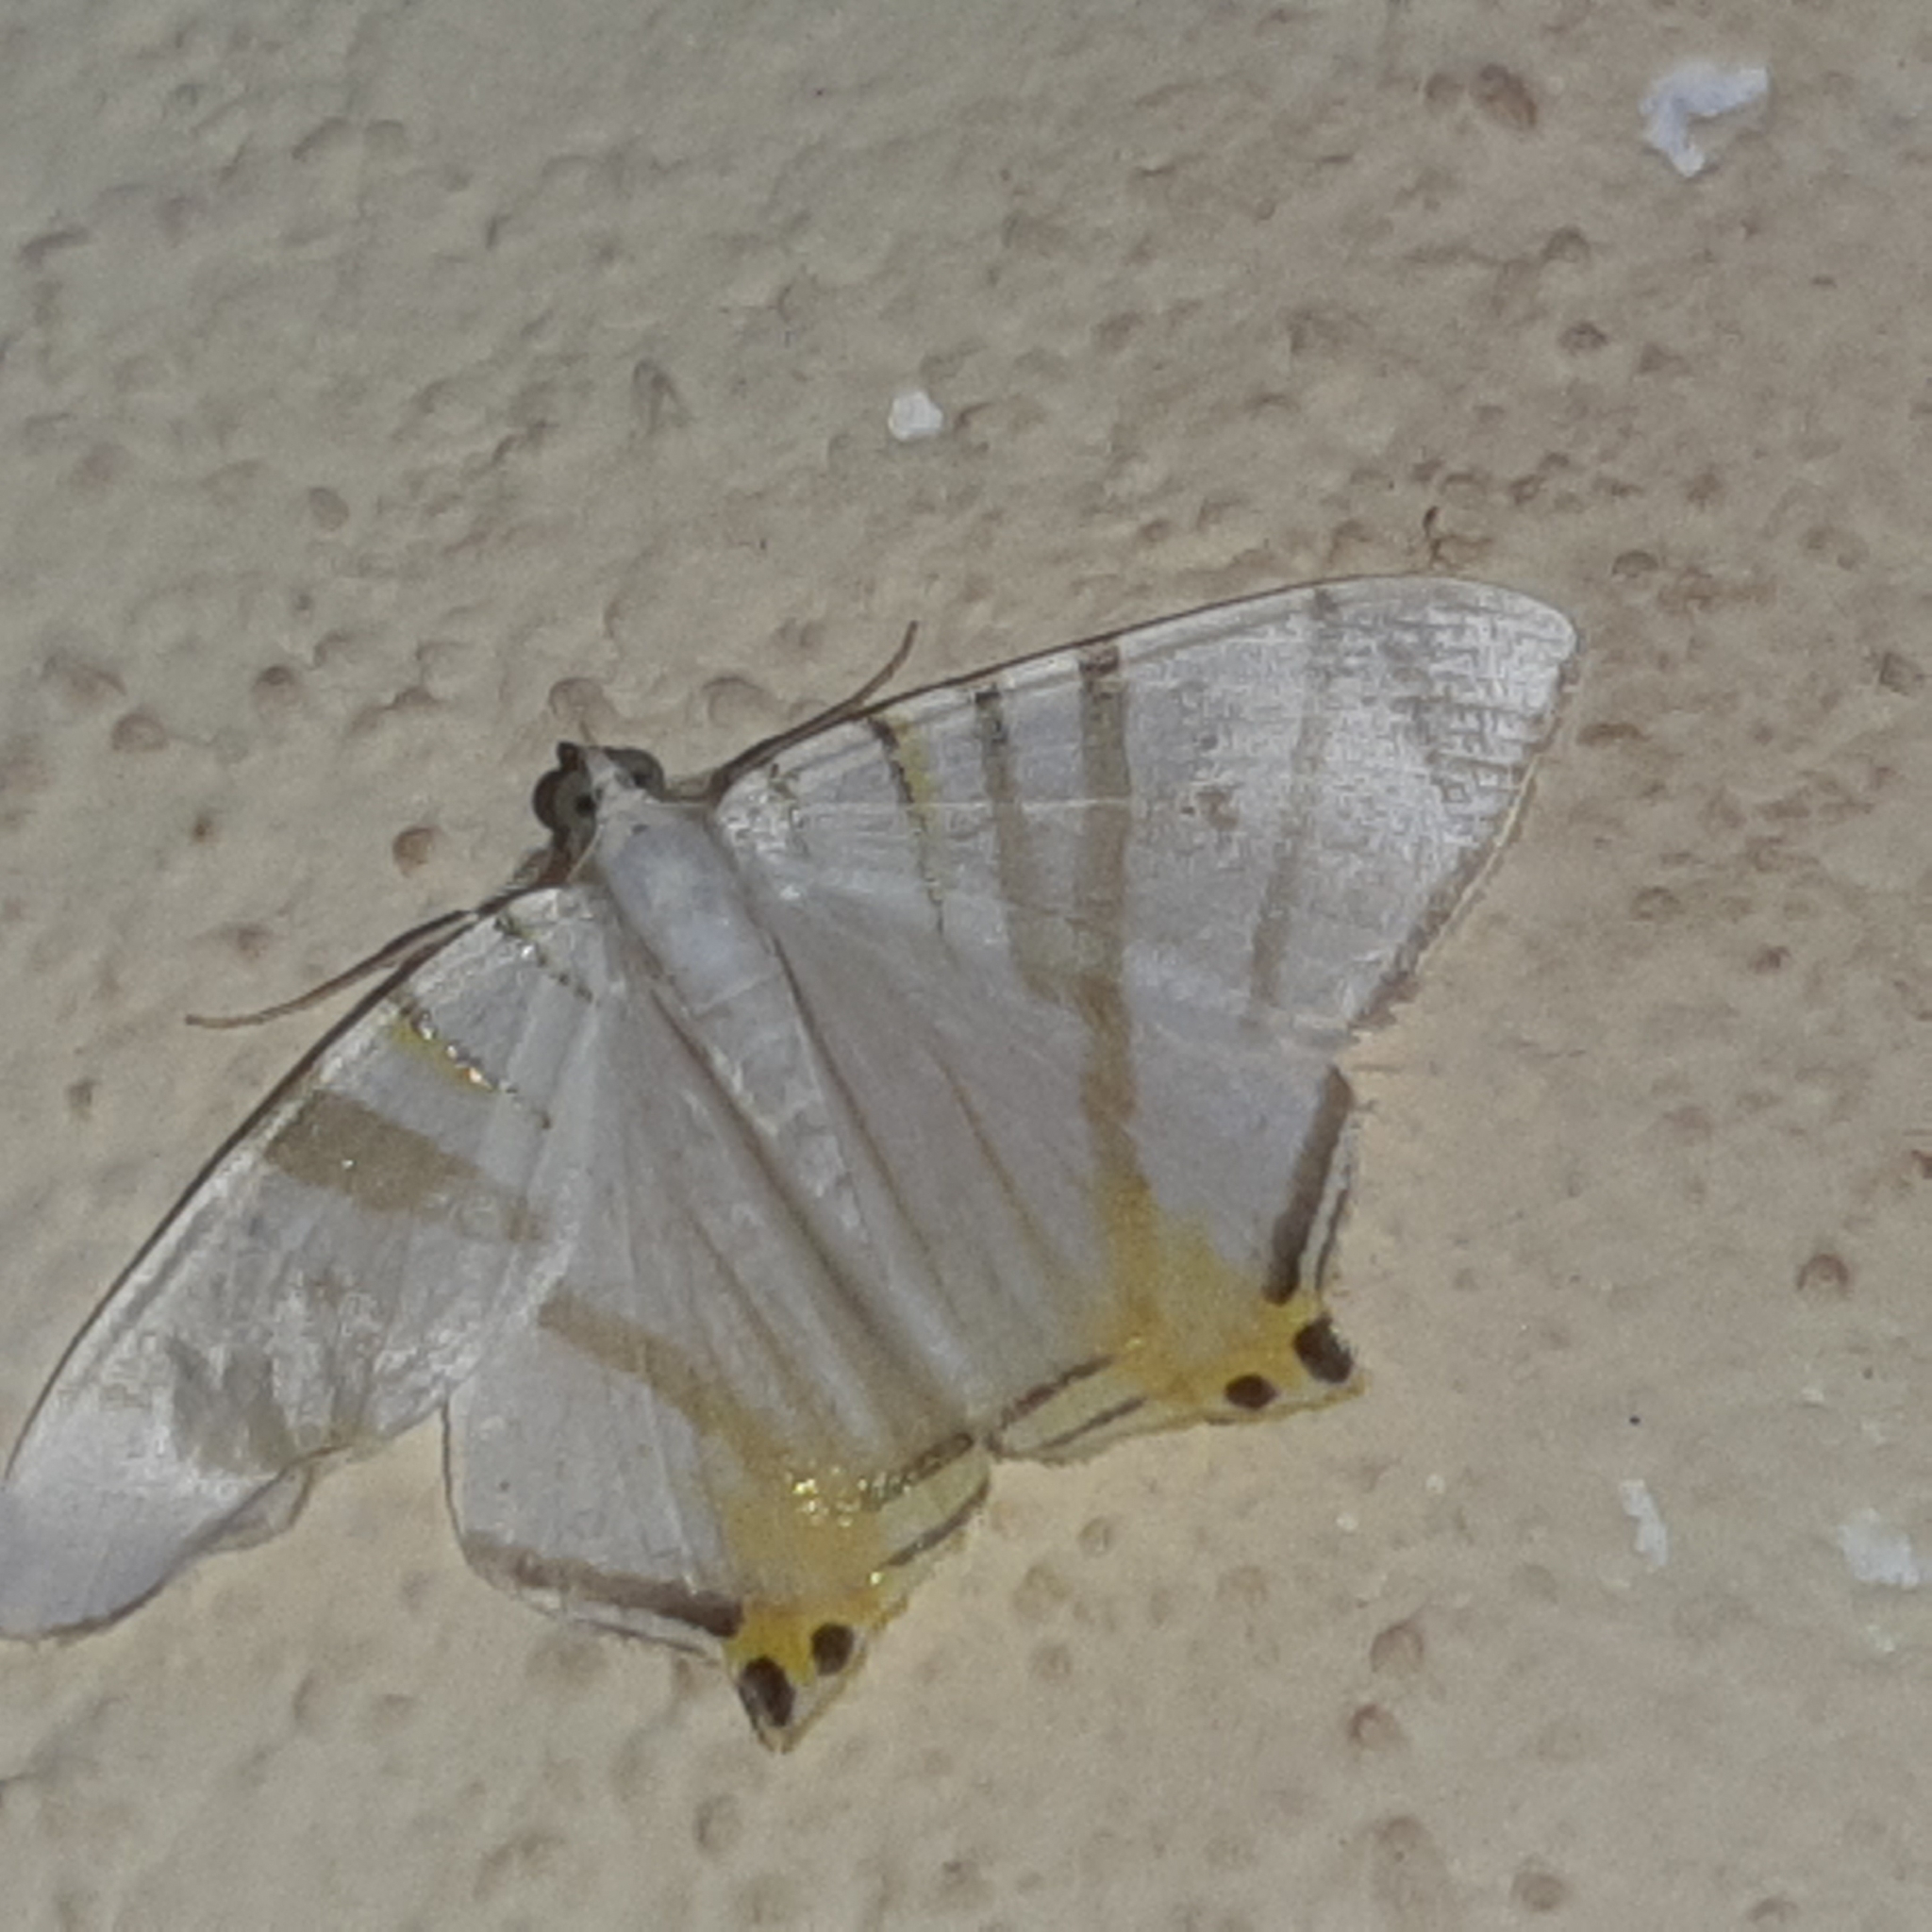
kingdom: Animalia
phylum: Arthropoda
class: Insecta
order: Lepidoptera
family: Geometridae
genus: Phrygionis
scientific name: Phrygionis platinata
